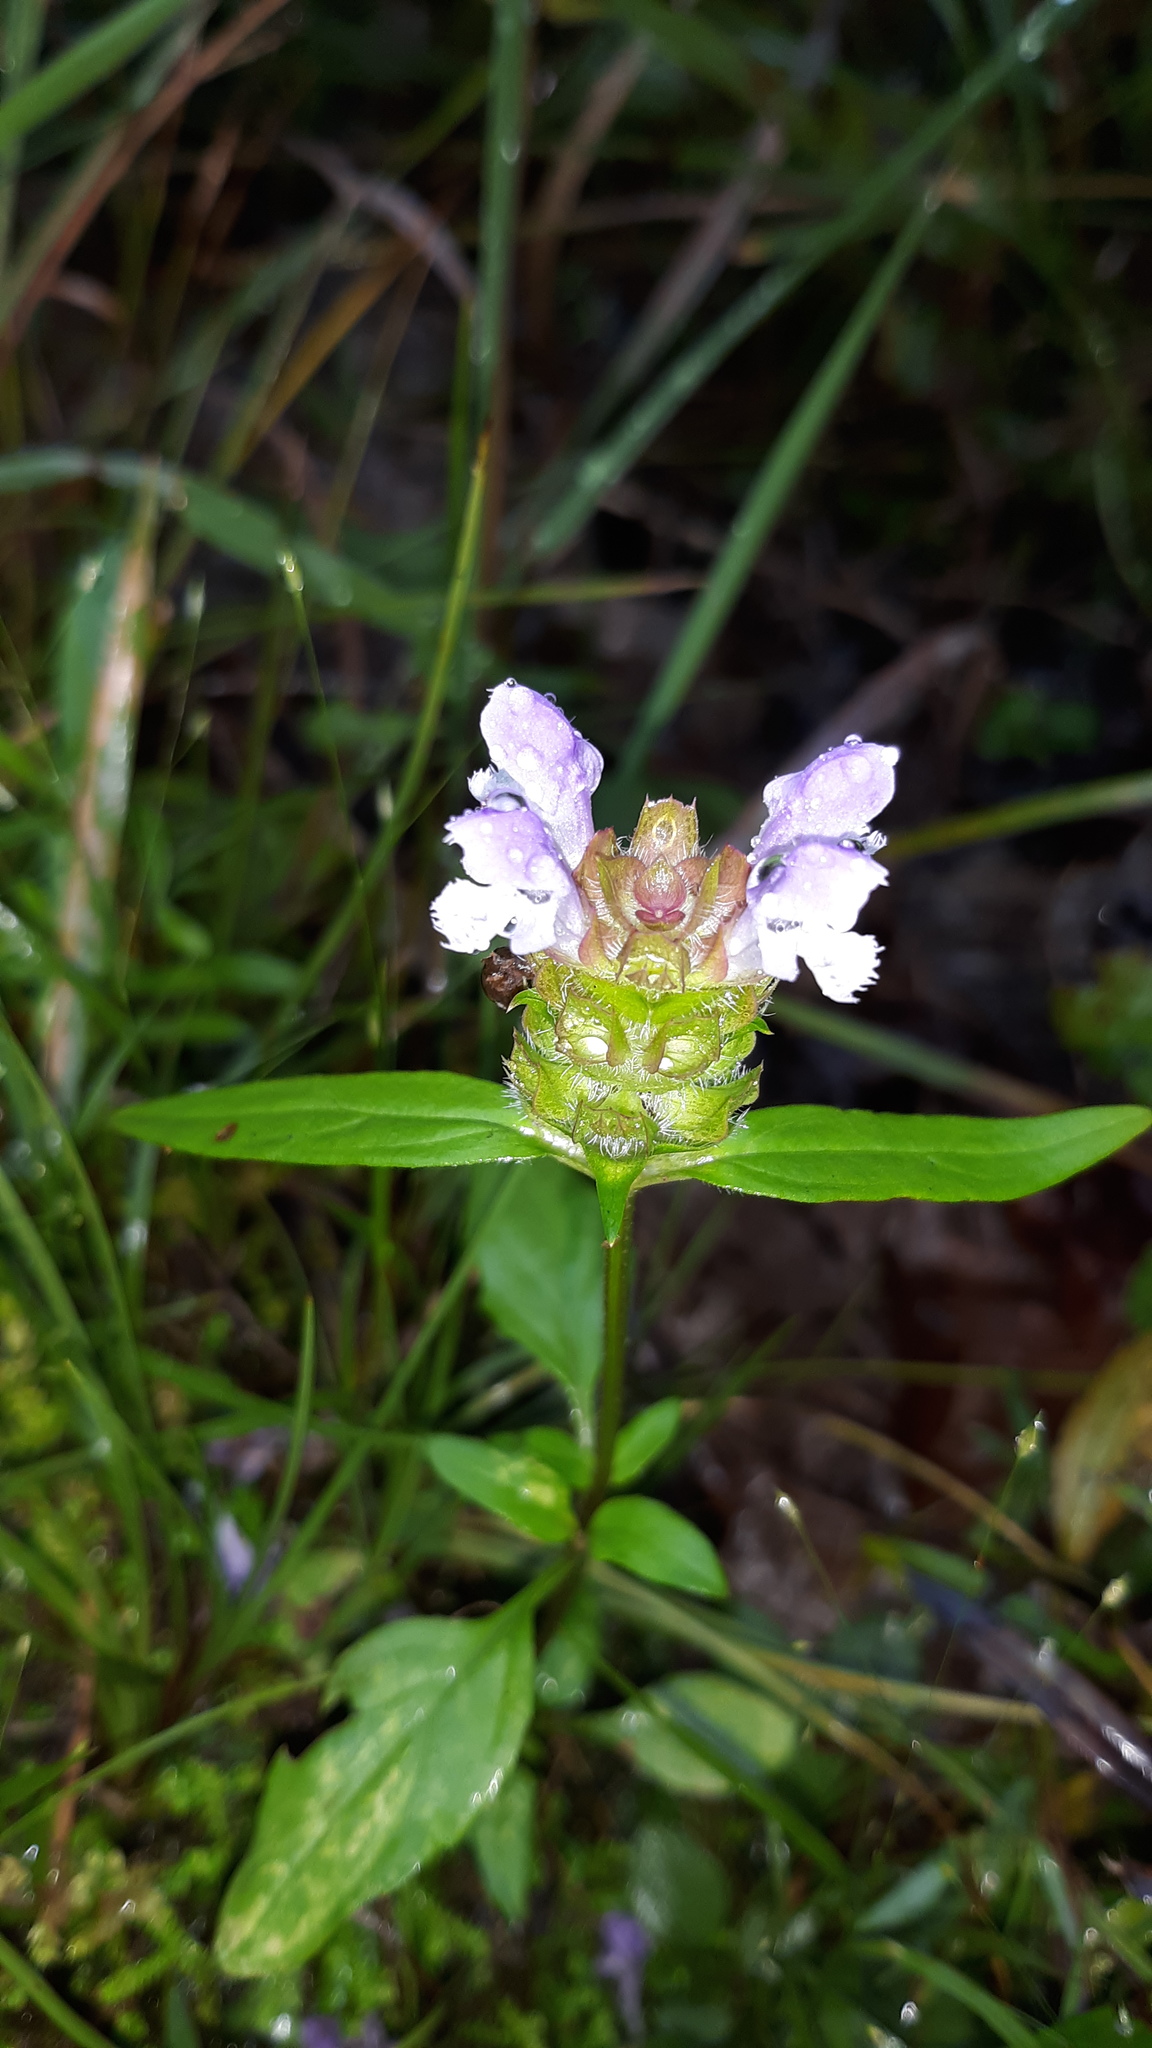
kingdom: Plantae
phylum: Tracheophyta
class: Magnoliopsida
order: Lamiales
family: Lamiaceae
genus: Prunella
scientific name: Prunella vulgaris
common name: Heal-all
